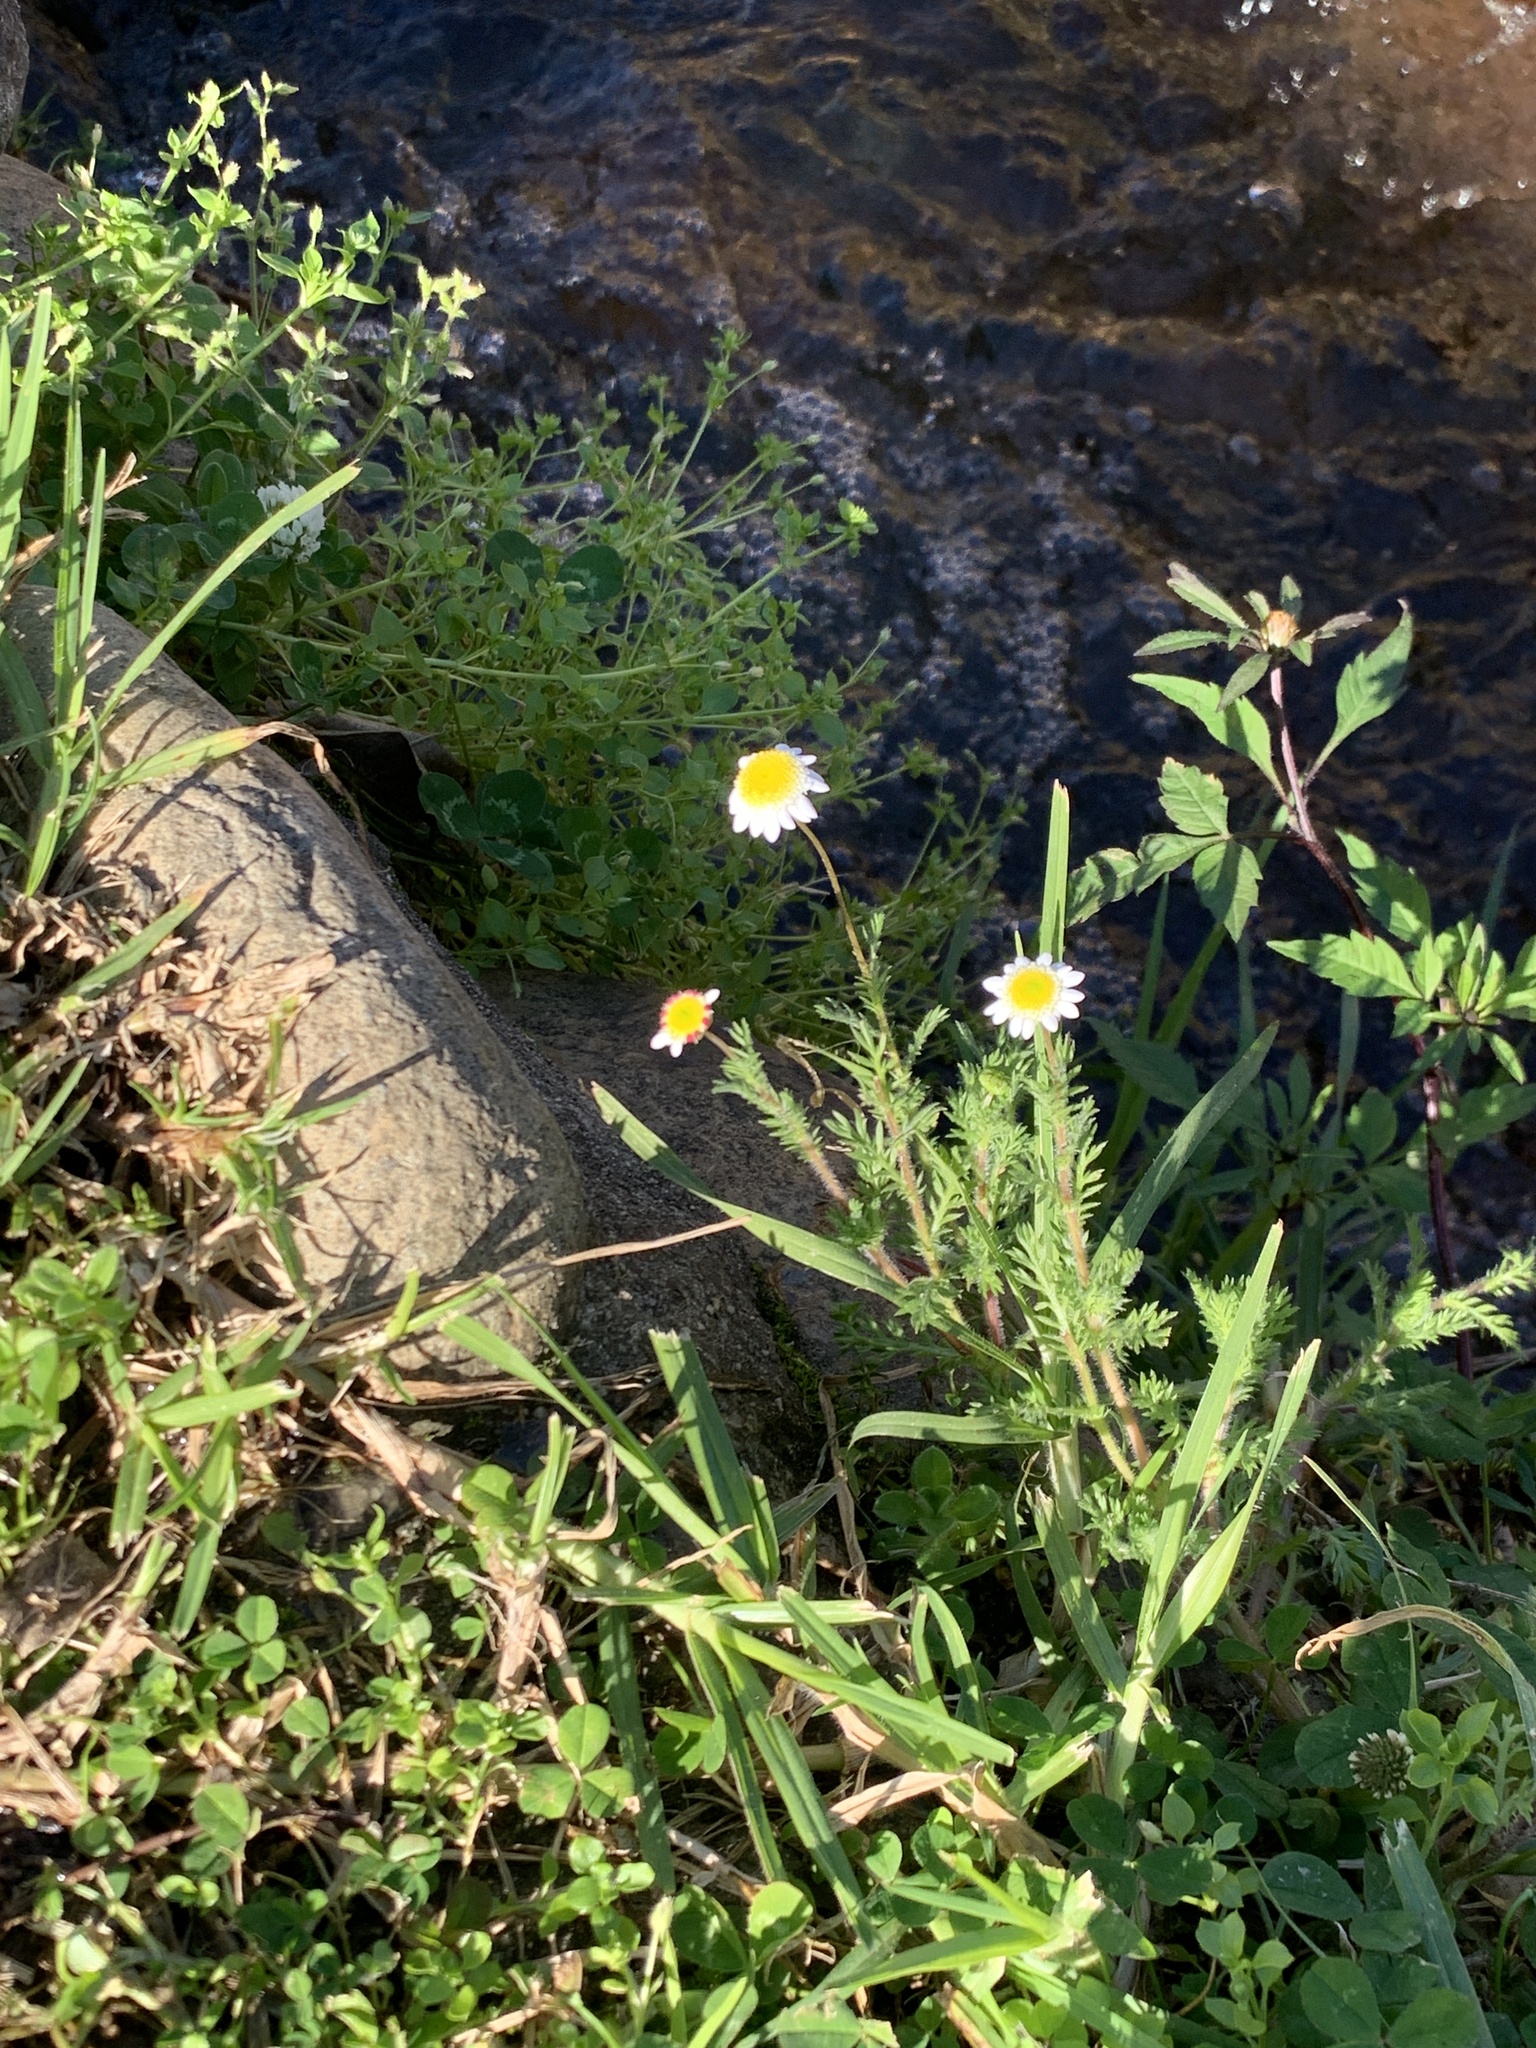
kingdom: Plantae
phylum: Tracheophyta
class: Magnoliopsida
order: Asterales
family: Asteraceae
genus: Cotula
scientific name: Cotula turbinata
